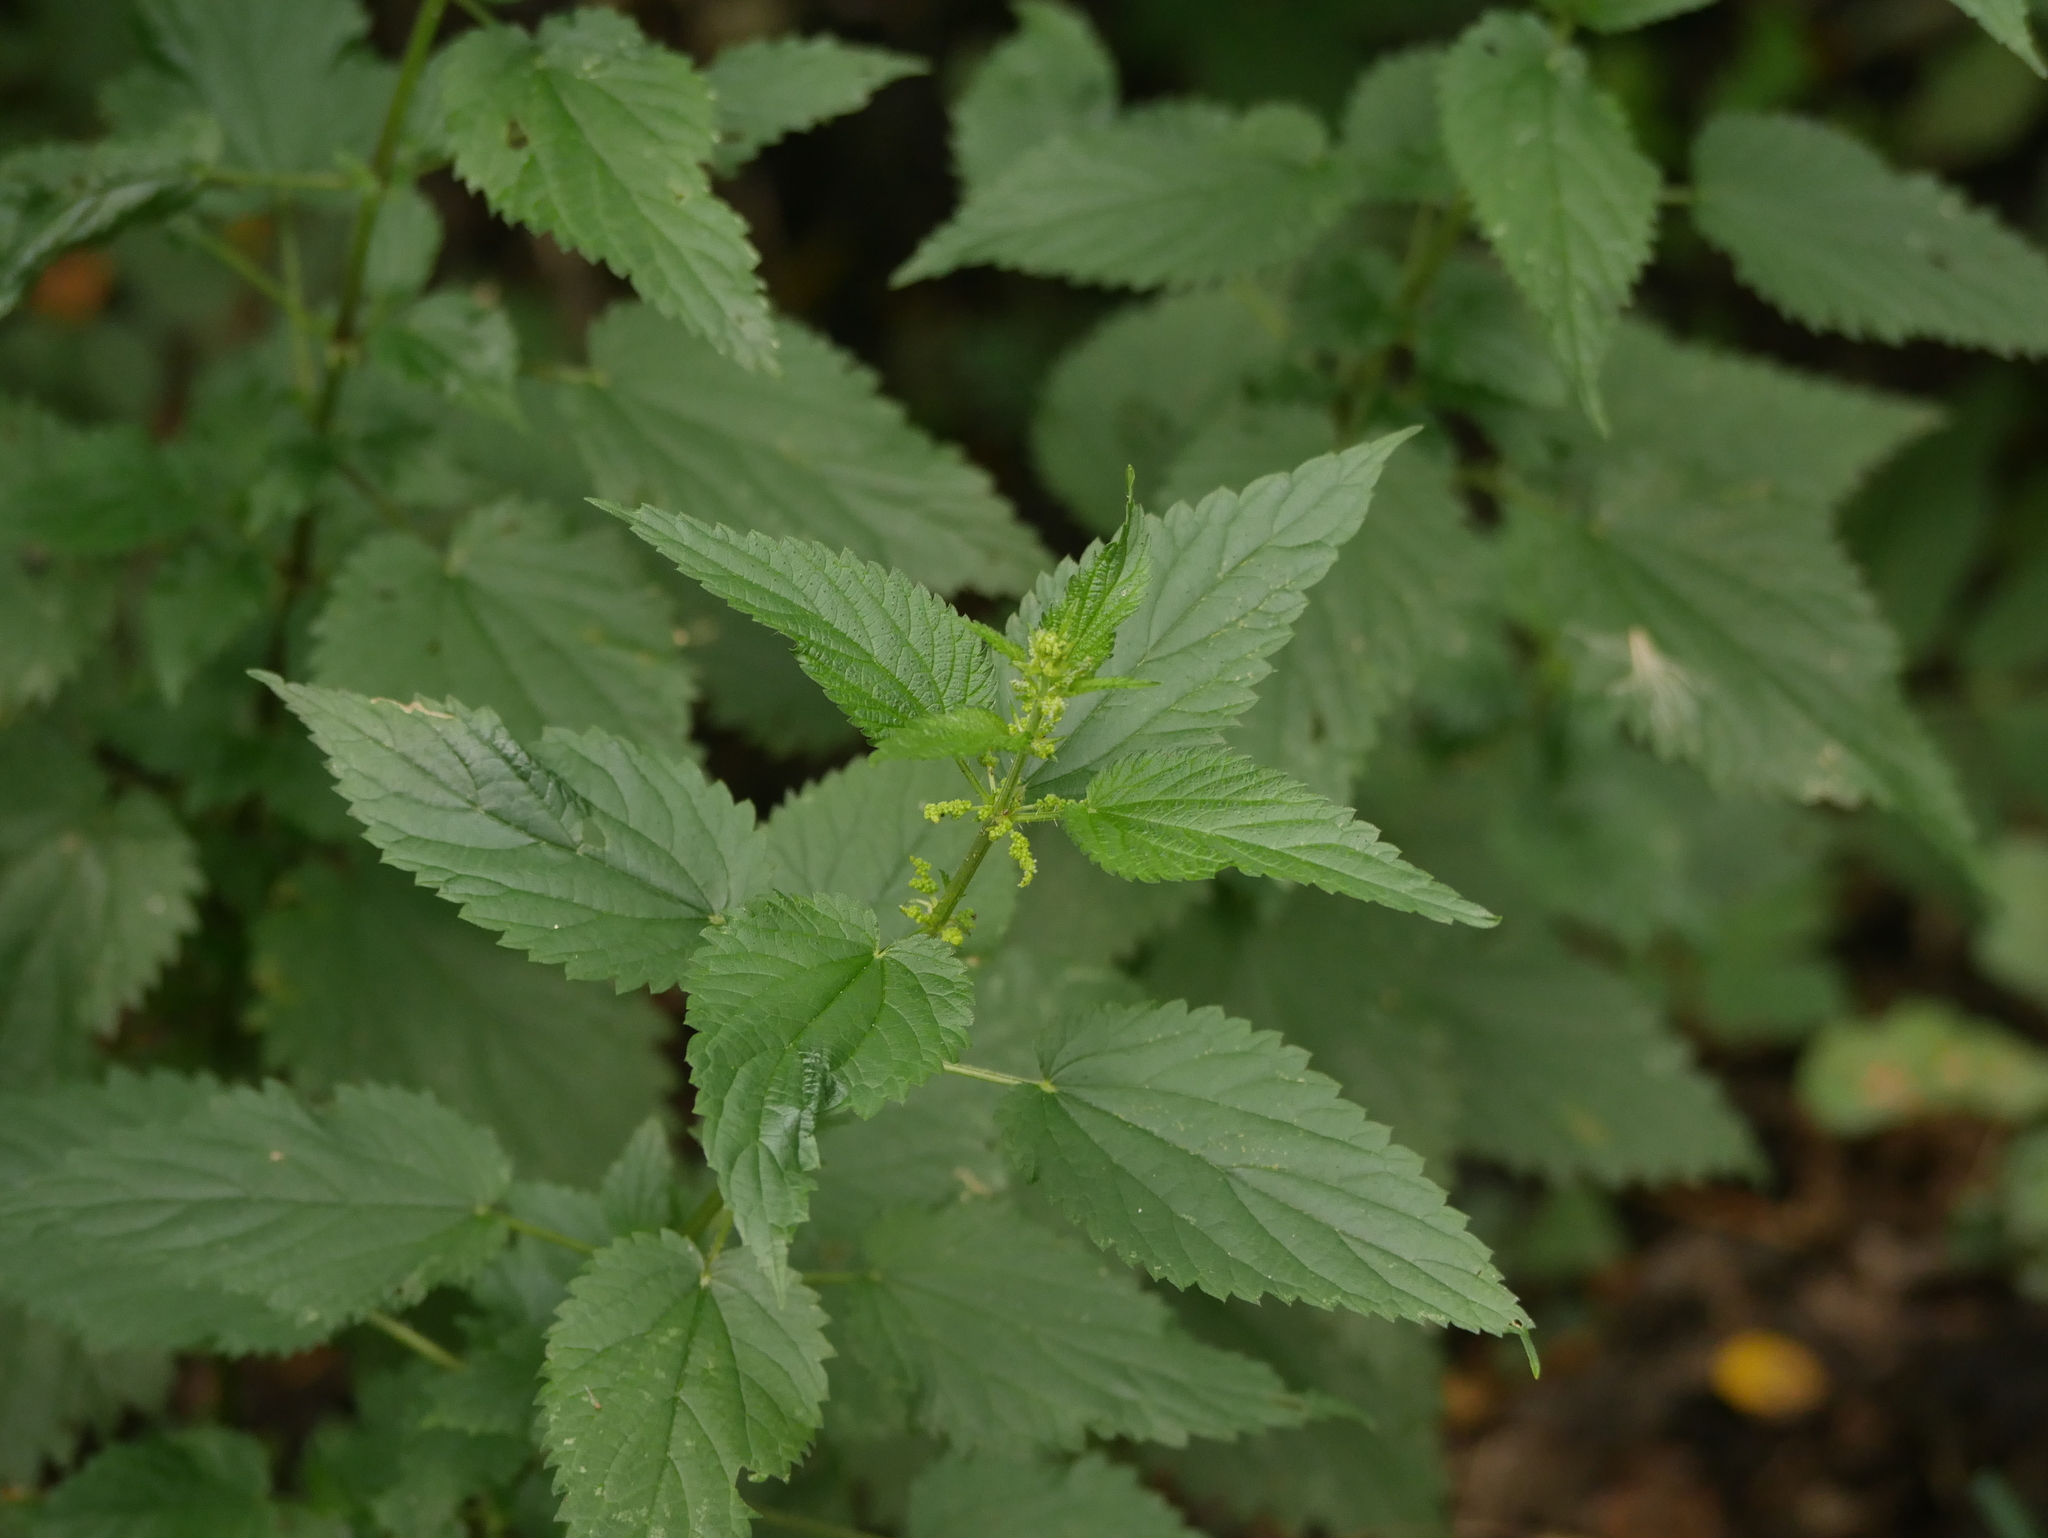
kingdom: Plantae
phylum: Tracheophyta
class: Magnoliopsida
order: Rosales
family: Urticaceae
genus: Urtica
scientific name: Urtica dioica
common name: Common nettle
